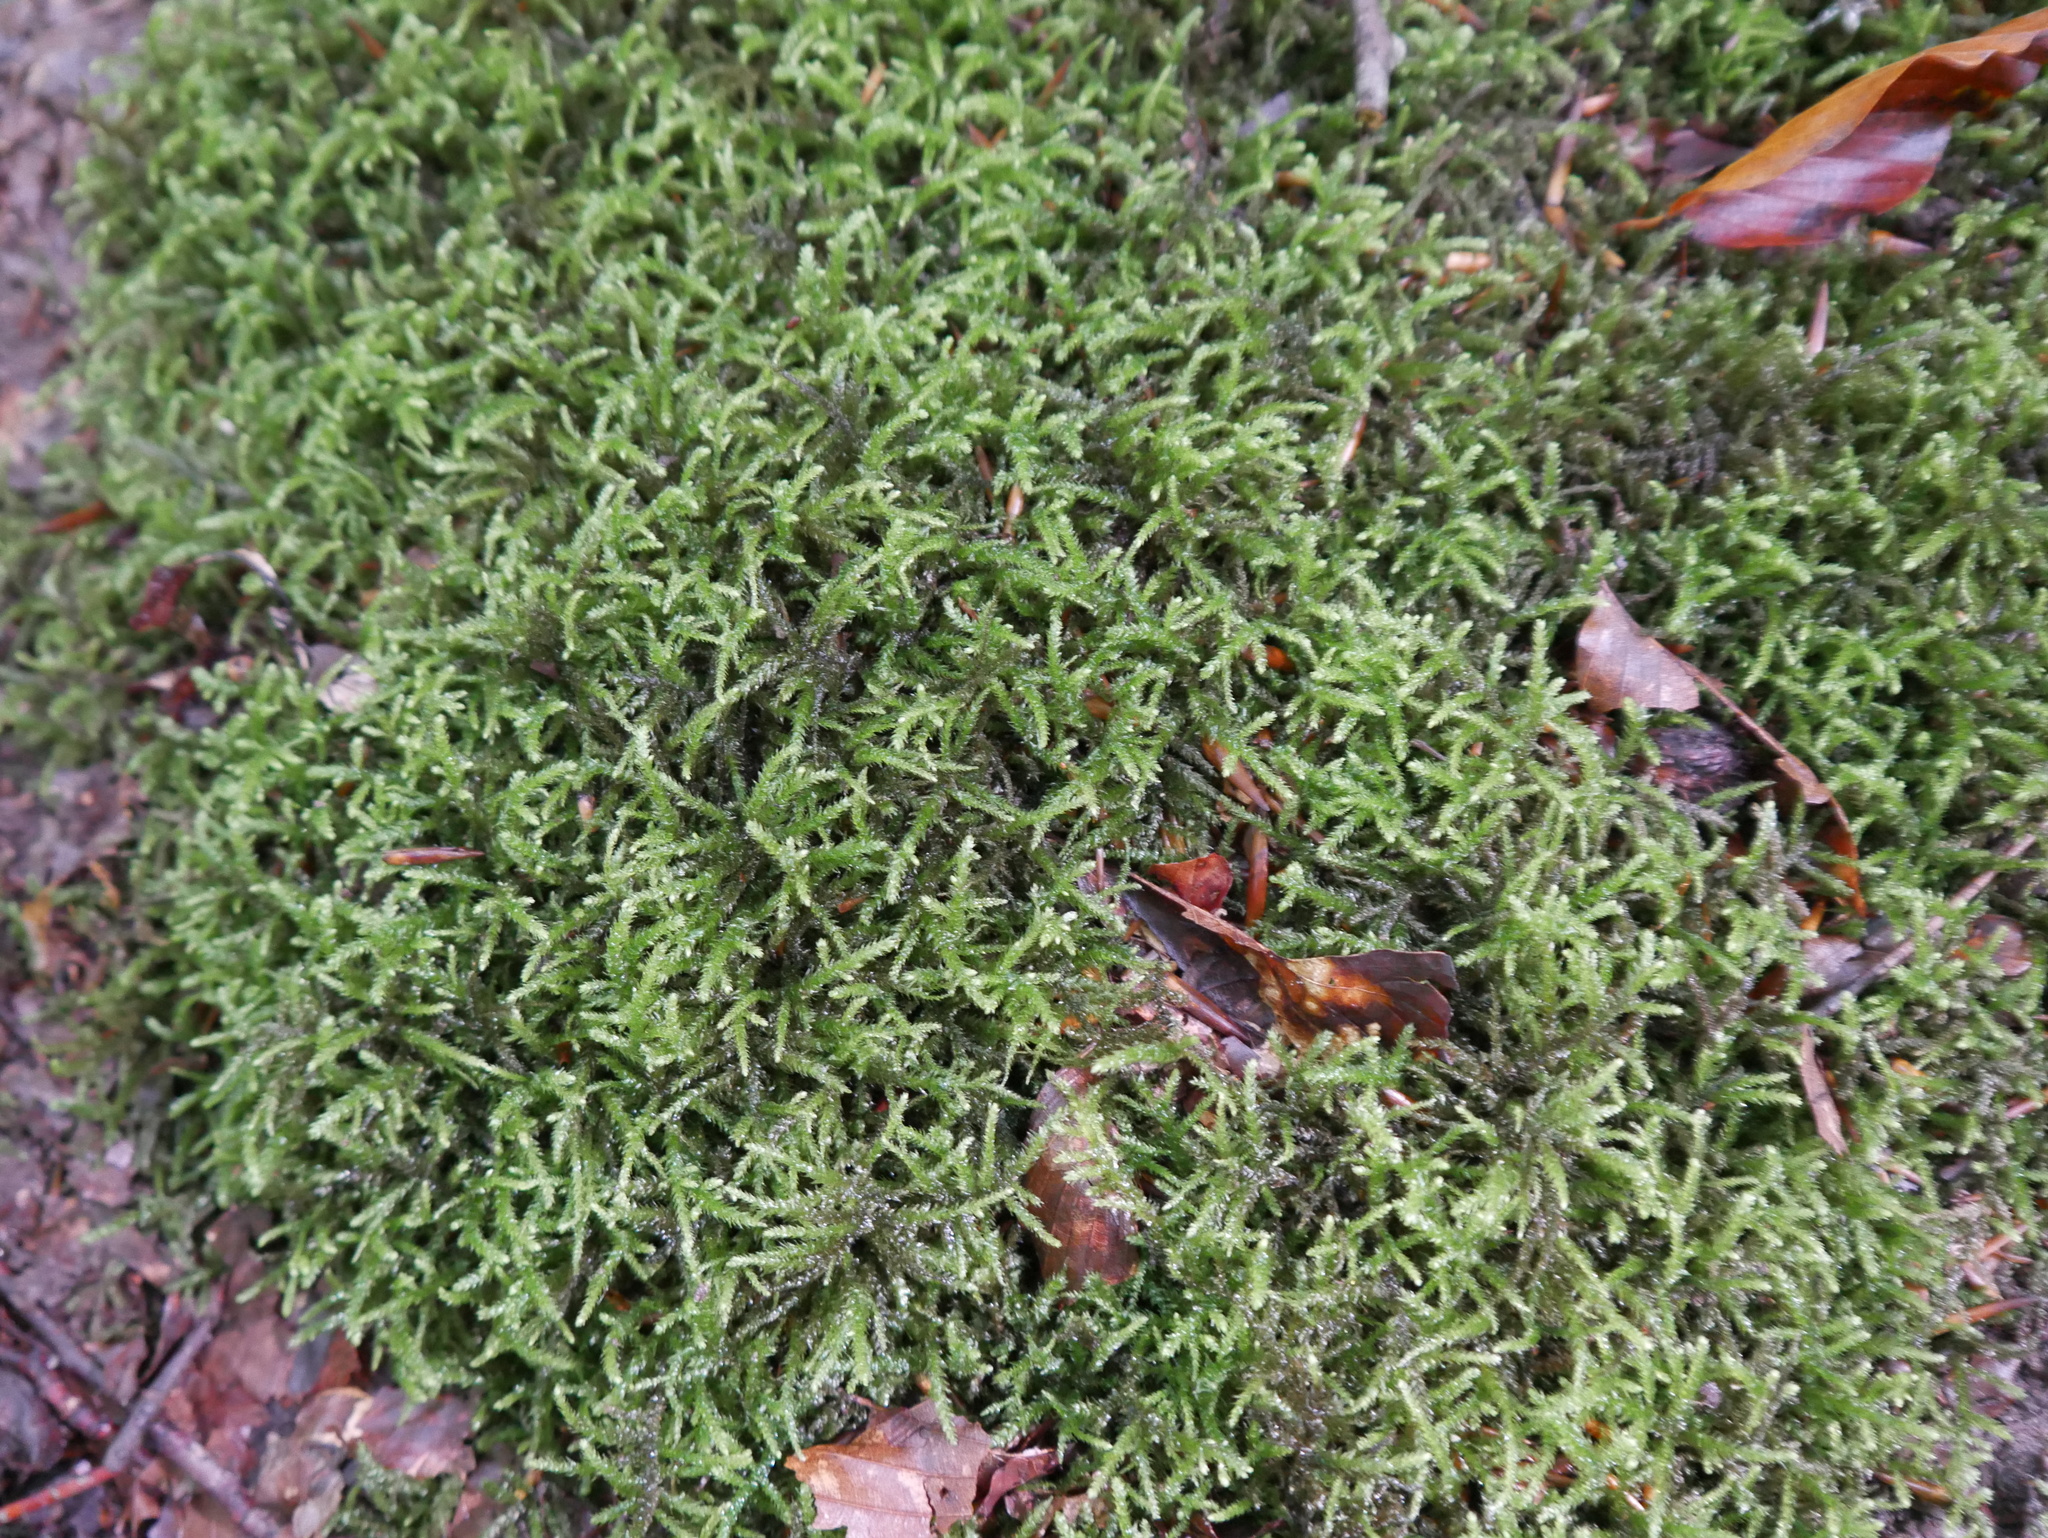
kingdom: Plantae
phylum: Bryophyta
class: Bryopsida
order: Hypnales
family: Brachytheciaceae
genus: Eurhynchium
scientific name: Eurhynchium striatum
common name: Common striated feather-moss
